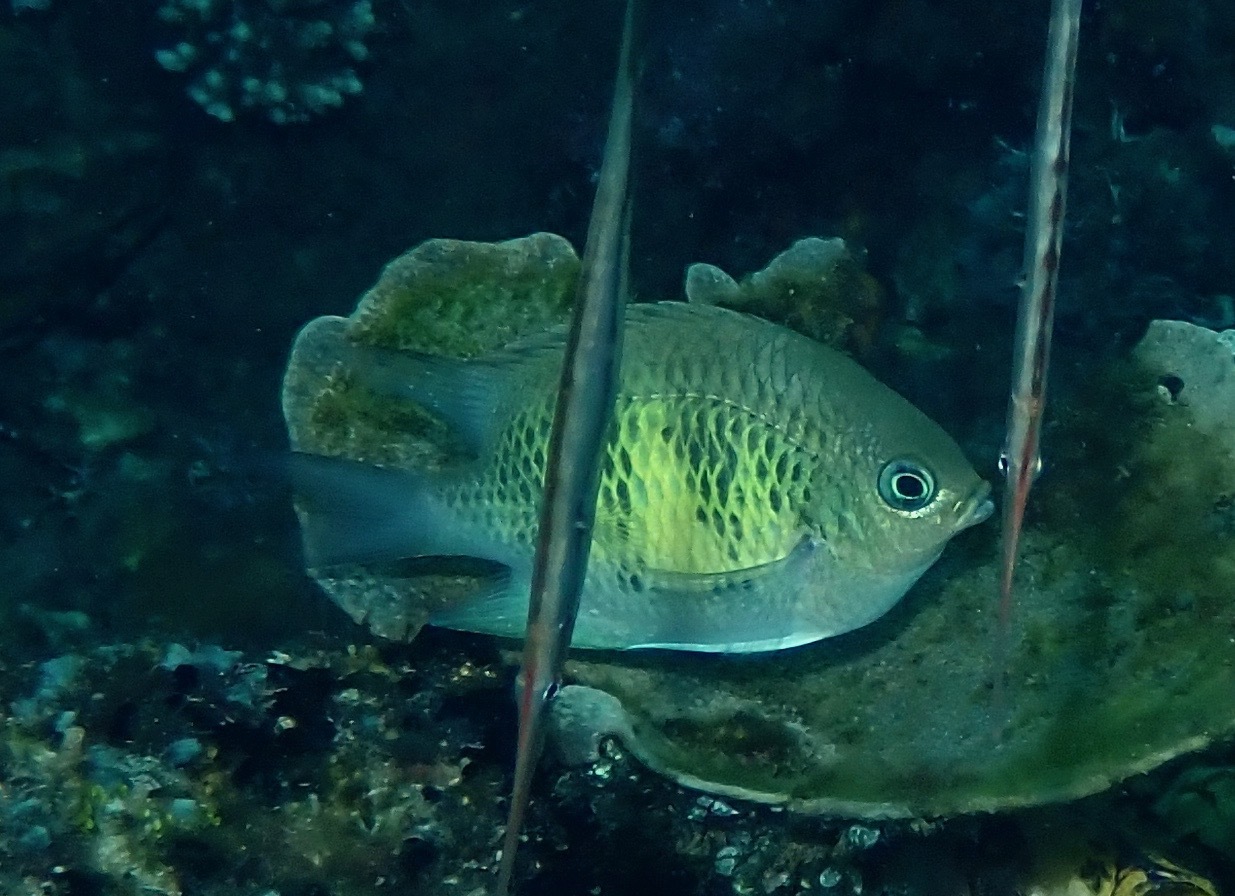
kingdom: Animalia
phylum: Chordata
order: Perciformes
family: Pomacentridae
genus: Amblyglyphidodon
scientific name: Amblyglyphidodon curacao
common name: Staghorn damsel
